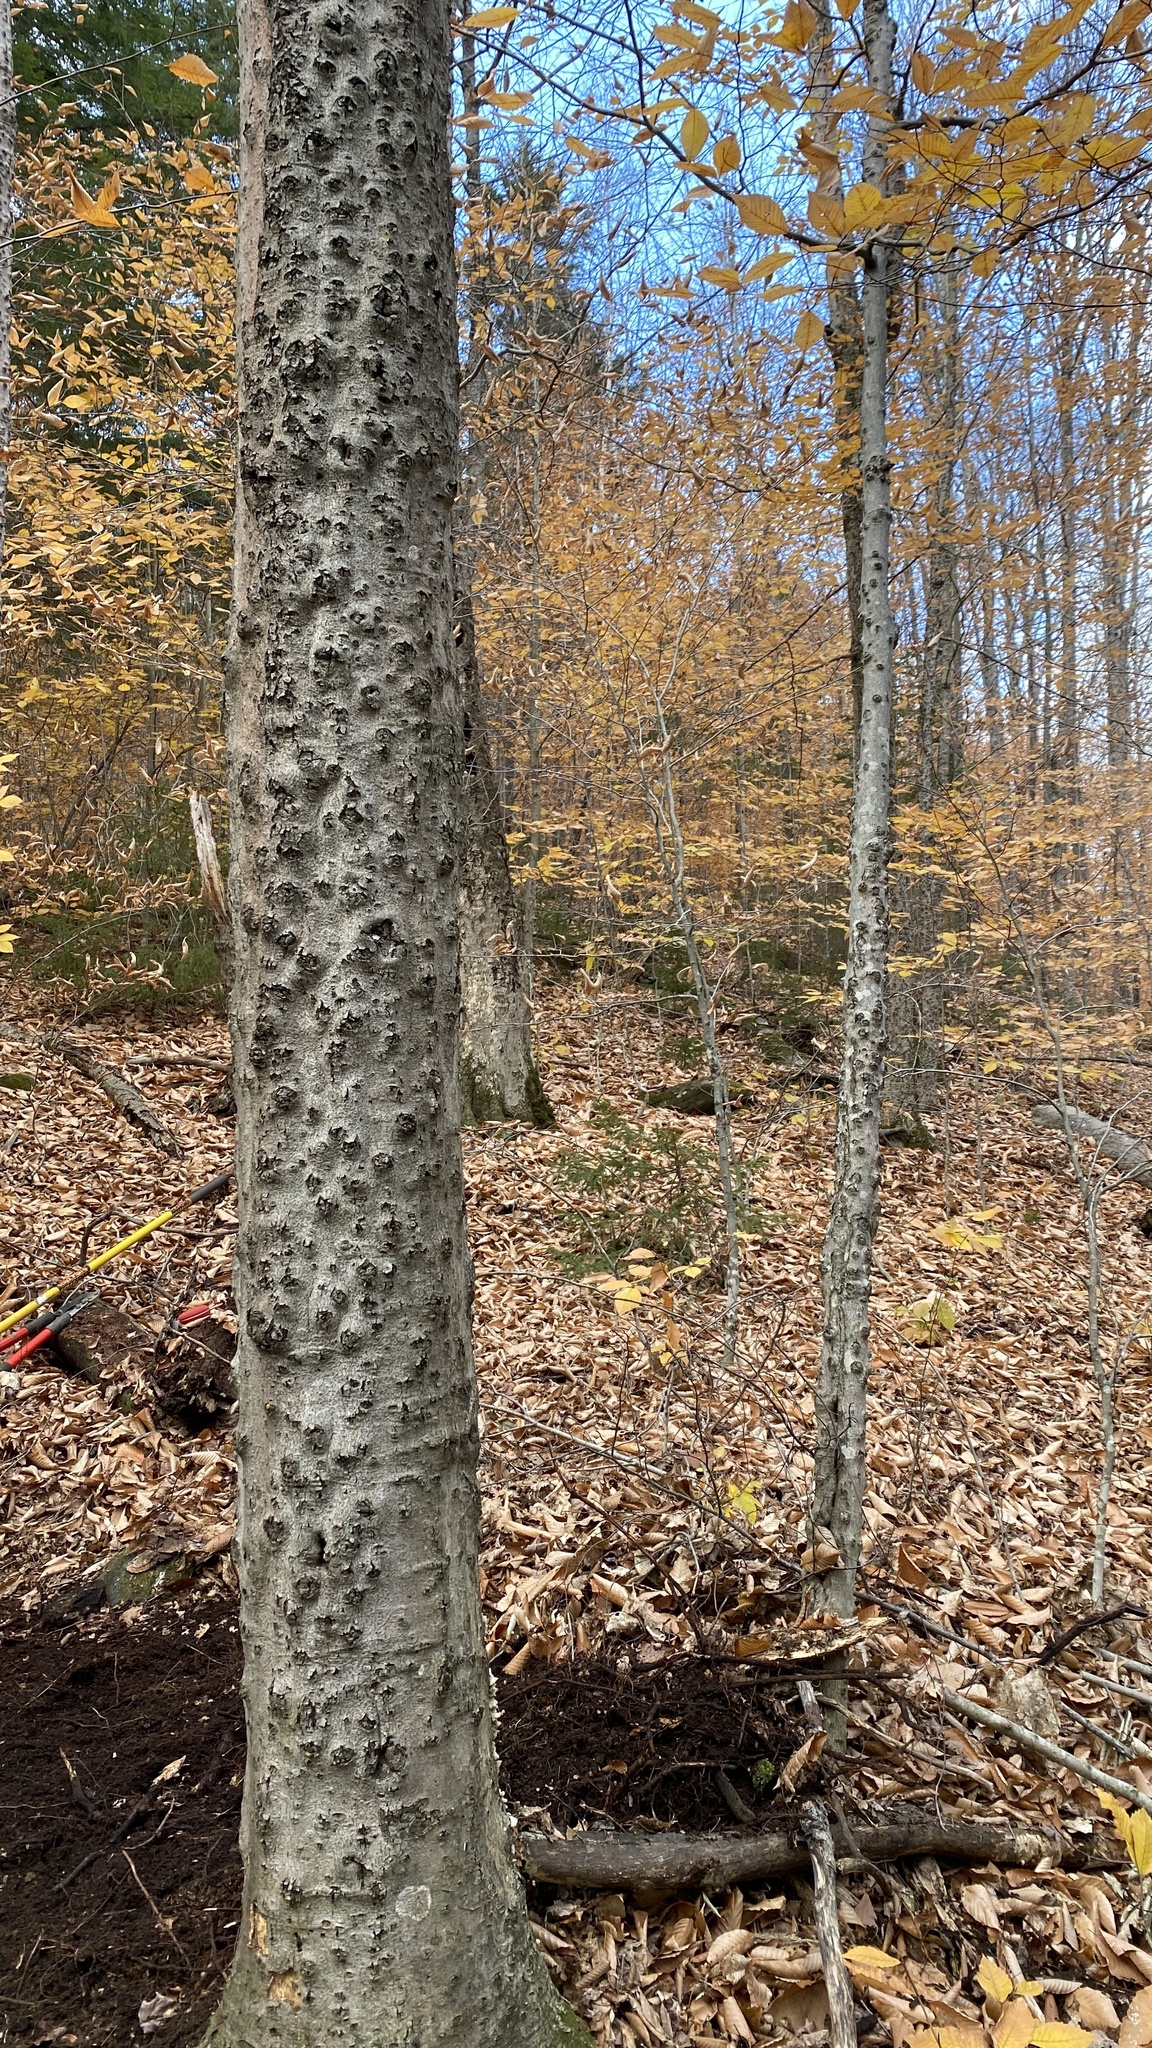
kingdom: Fungi
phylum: Ascomycota
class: Sordariomycetes
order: Hypocreales
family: Nectriaceae
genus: Neonectria
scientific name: Neonectria faginata
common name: Beech bark canker
